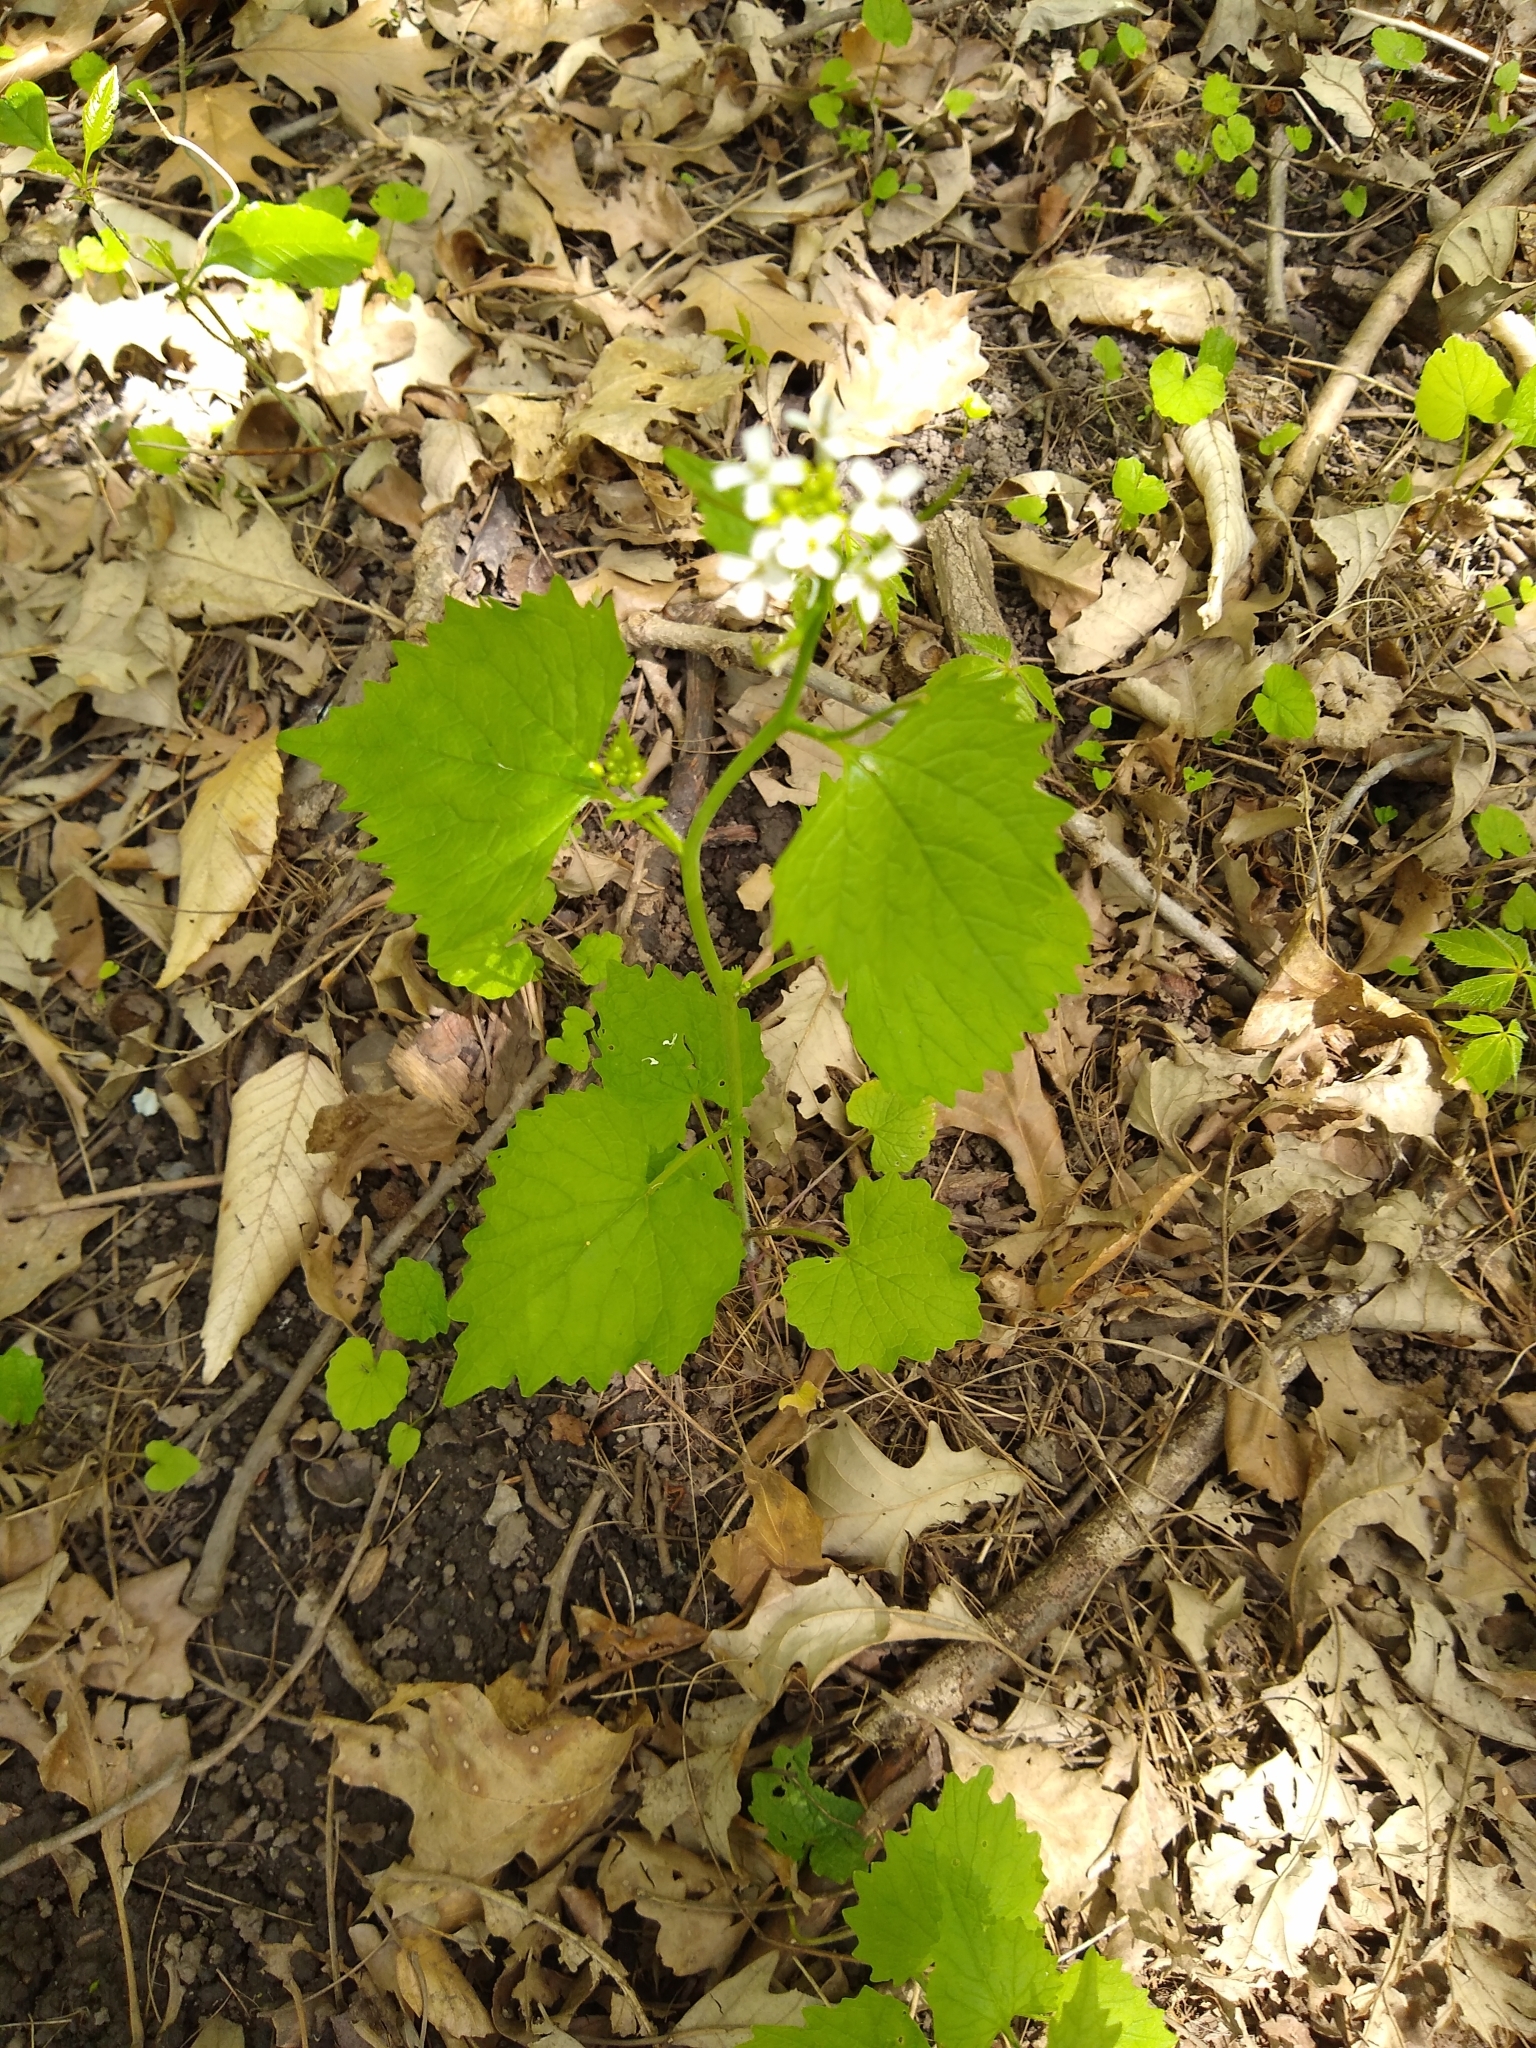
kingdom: Plantae
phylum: Tracheophyta
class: Magnoliopsida
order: Brassicales
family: Brassicaceae
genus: Alliaria
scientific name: Alliaria petiolata
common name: Garlic mustard
